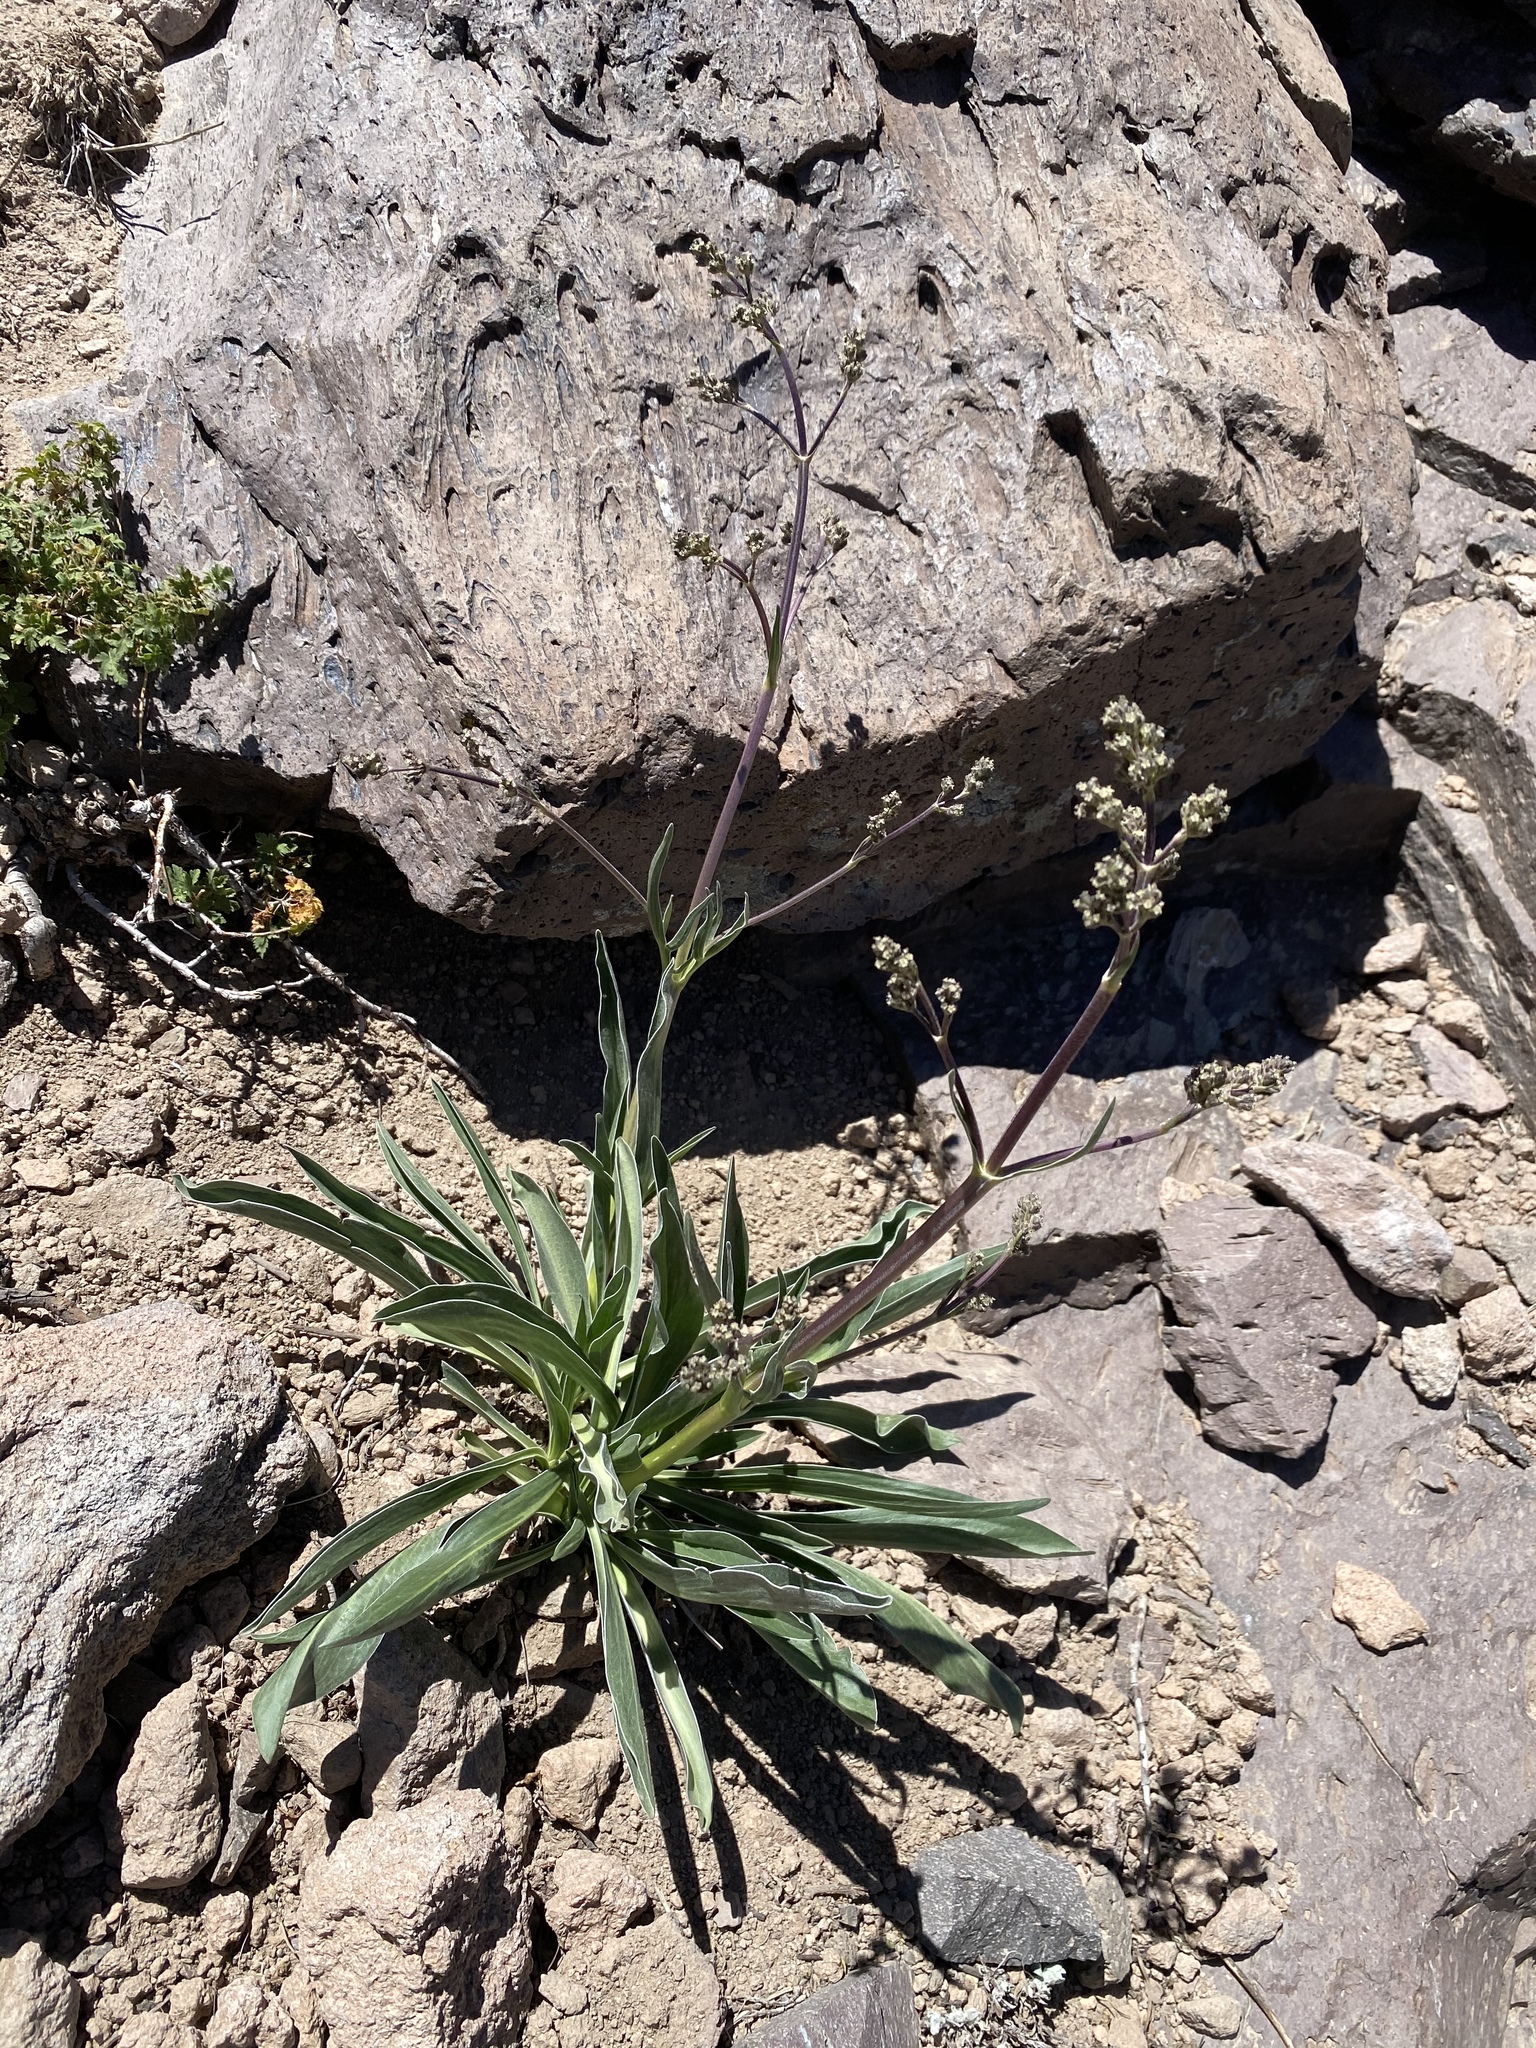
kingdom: Plantae
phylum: Tracheophyta
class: Magnoliopsida
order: Dipsacales
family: Caprifoliaceae
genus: Valeriana
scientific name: Valeriana edulis
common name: Taproot valerian
